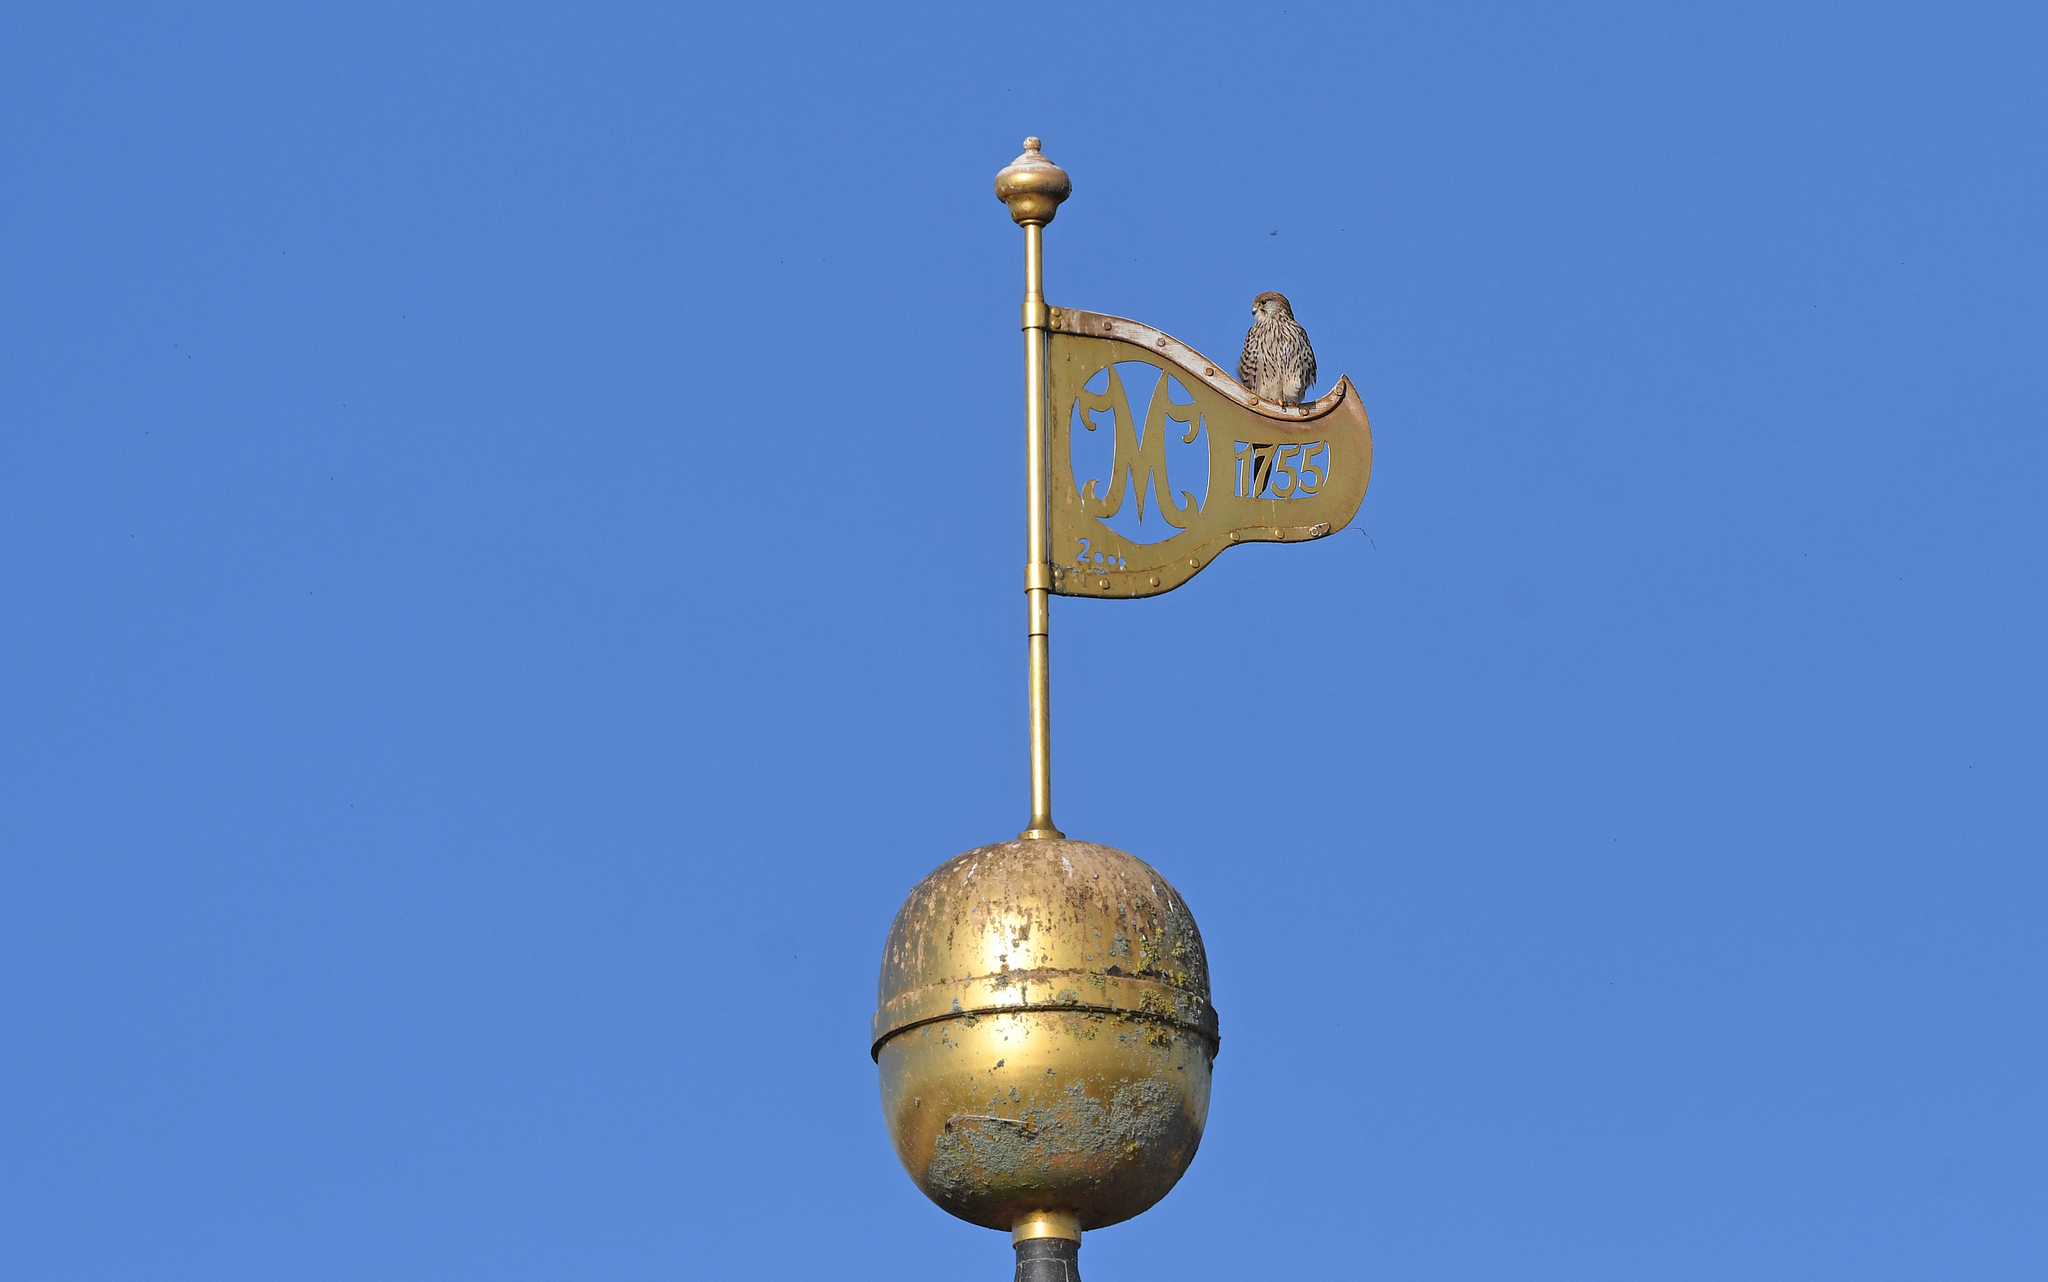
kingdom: Animalia
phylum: Chordata
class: Aves
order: Falconiformes
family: Falconidae
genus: Falco
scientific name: Falco tinnunculus
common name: Common kestrel
